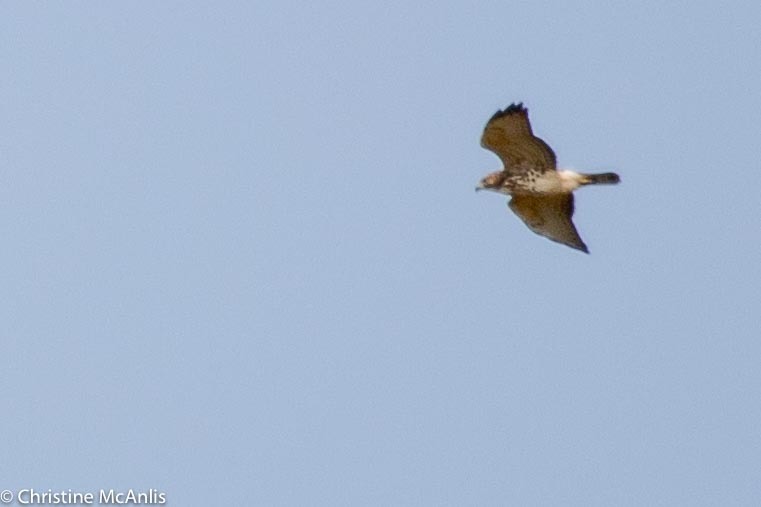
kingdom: Animalia
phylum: Chordata
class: Aves
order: Accipitriformes
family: Accipitridae
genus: Buteo
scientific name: Buteo platypterus
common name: Broad-winged hawk
